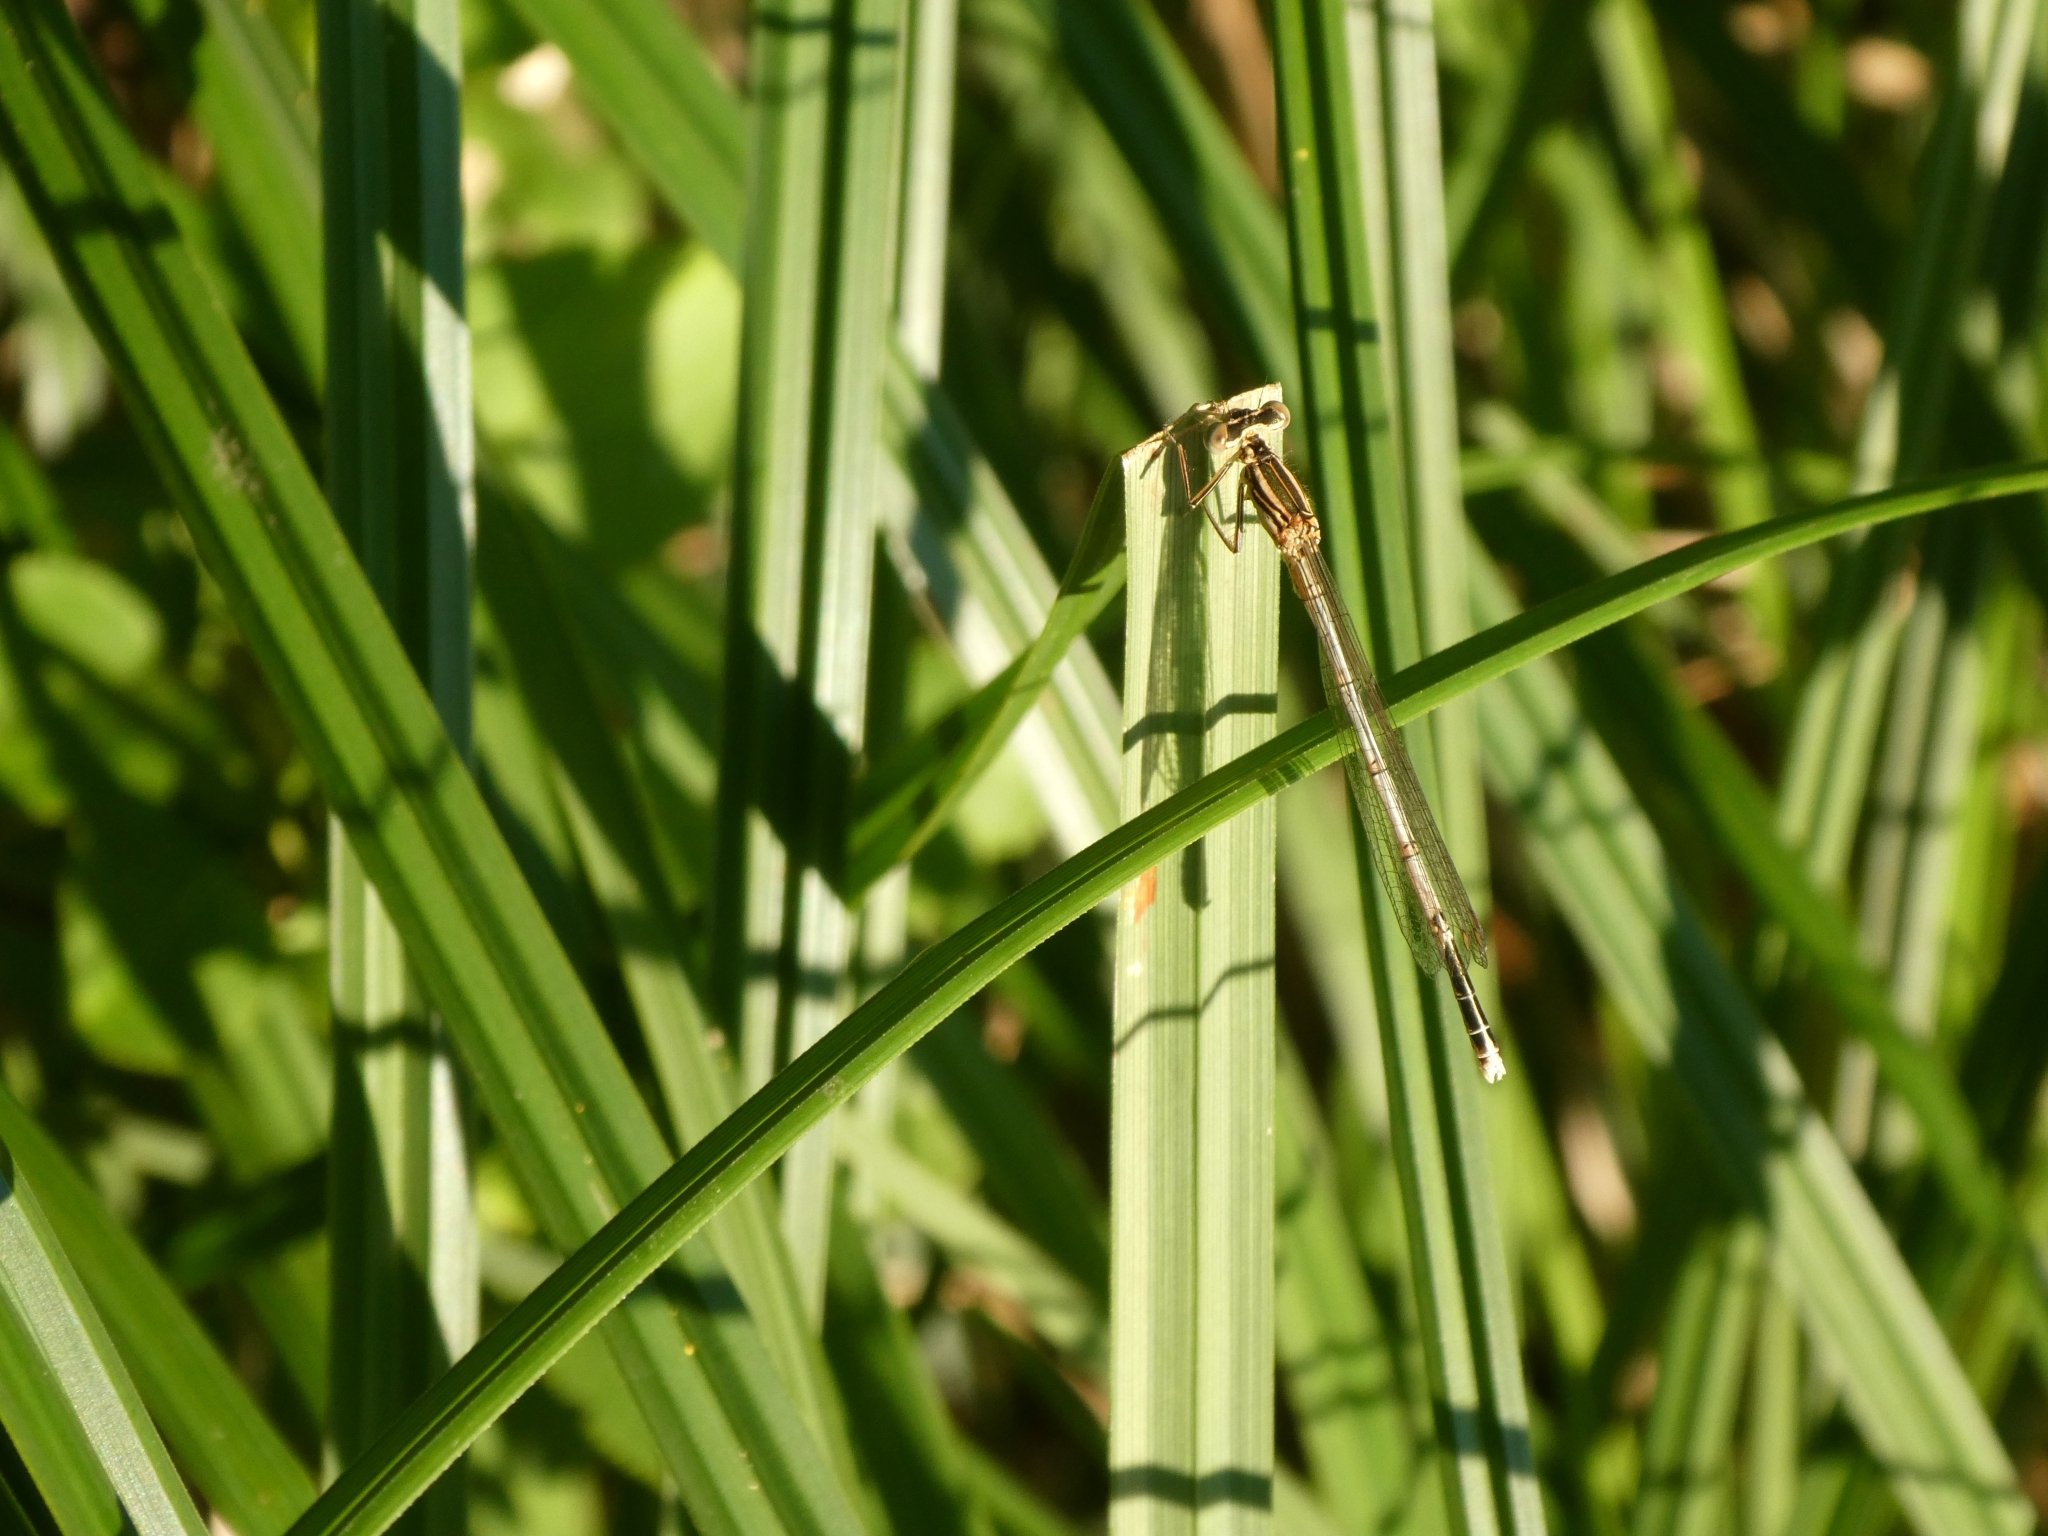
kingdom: Animalia
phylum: Arthropoda
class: Insecta
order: Odonata
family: Platycnemididae
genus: Platycnemis
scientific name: Platycnemis pennipes
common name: White-legged damselfly
